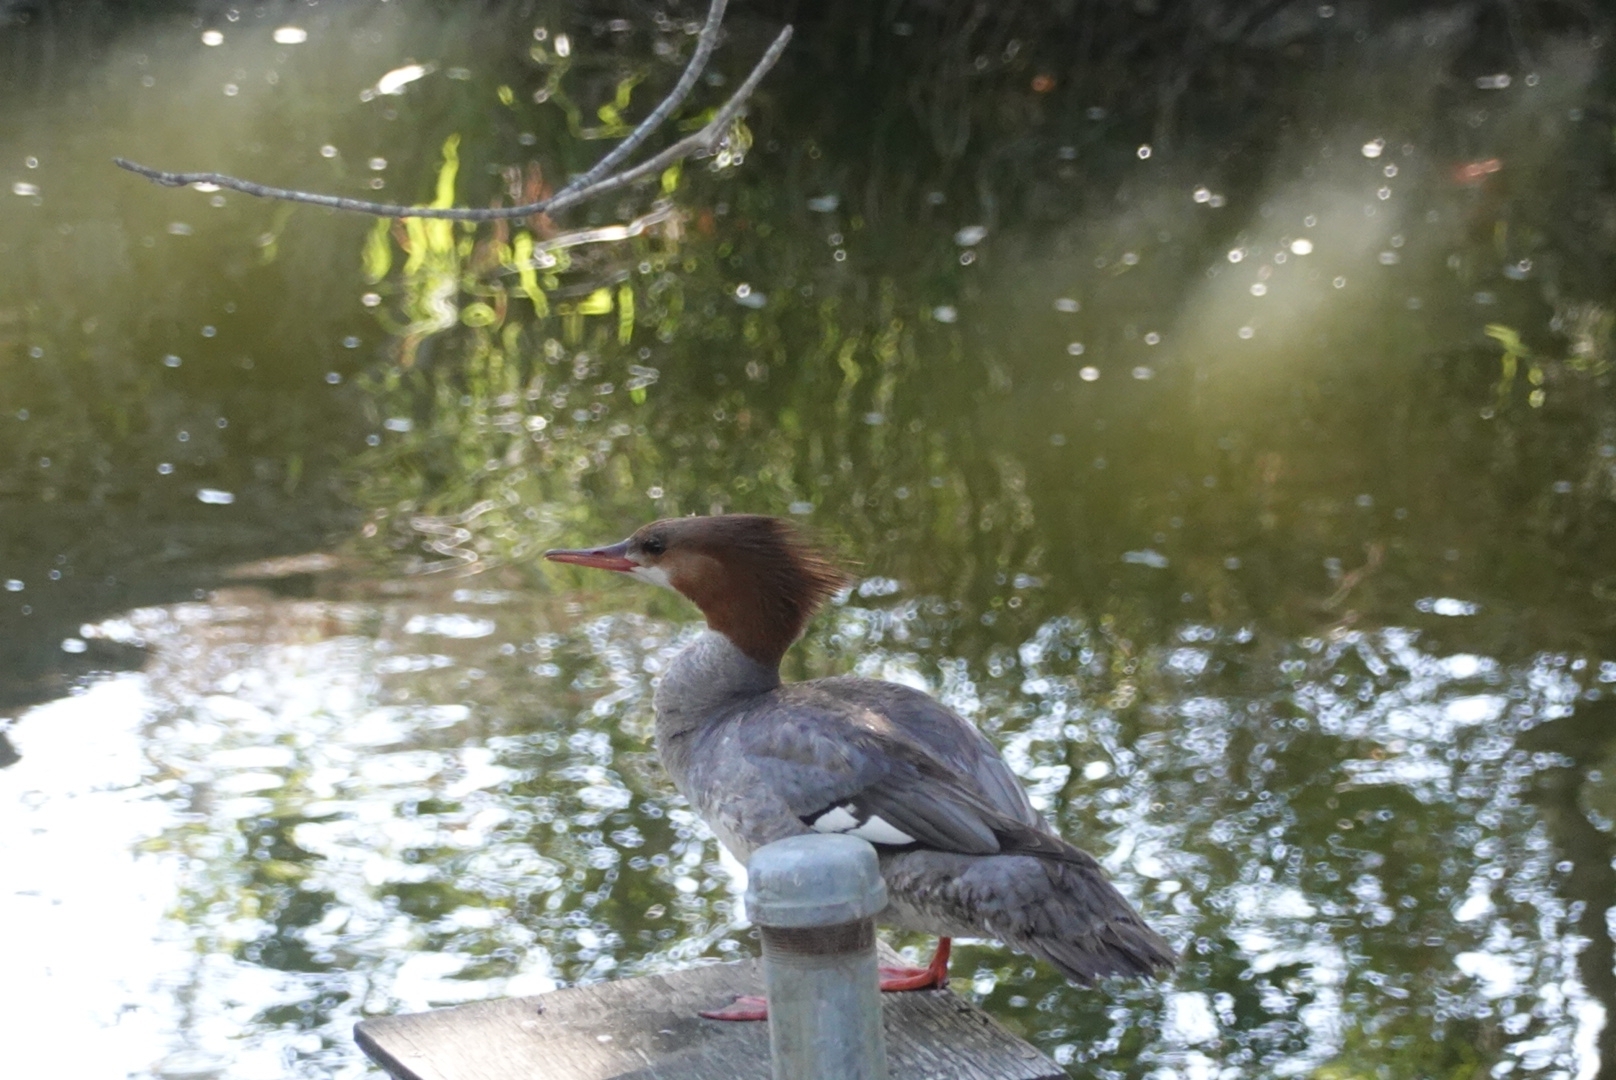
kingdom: Animalia
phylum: Chordata
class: Aves
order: Anseriformes
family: Anatidae
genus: Mergus
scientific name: Mergus merganser
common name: Common merganser
